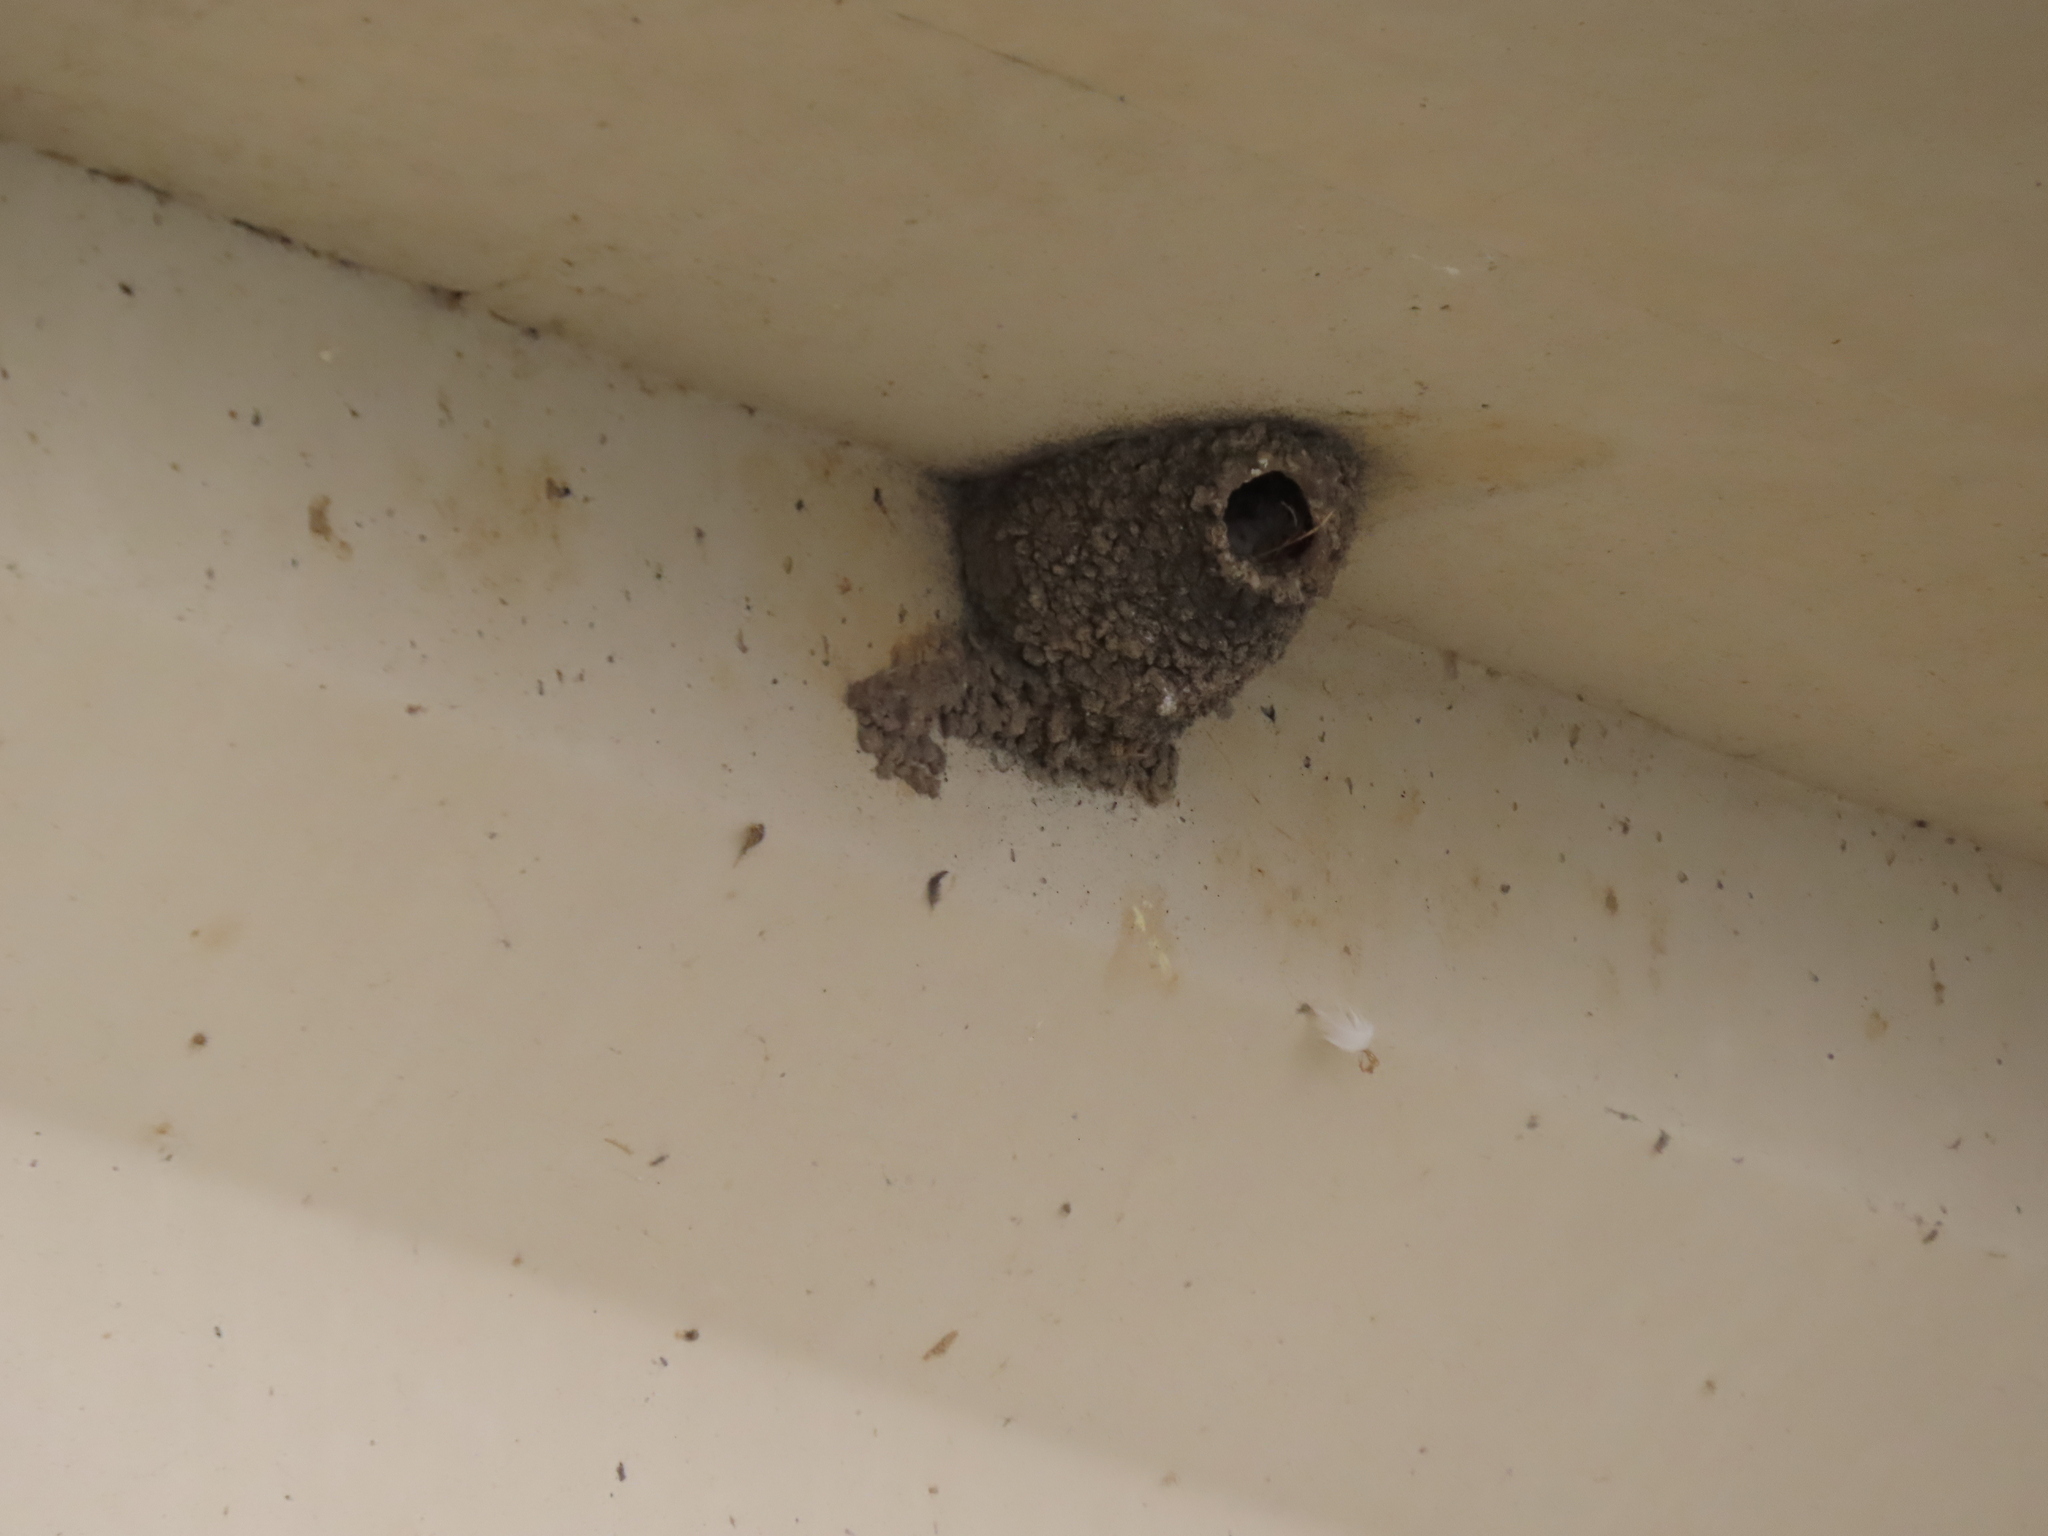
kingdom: Animalia
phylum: Chordata
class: Aves
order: Passeriformes
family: Hirundinidae
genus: Petrochelidon
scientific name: Petrochelidon pyrrhonota
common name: American cliff swallow
